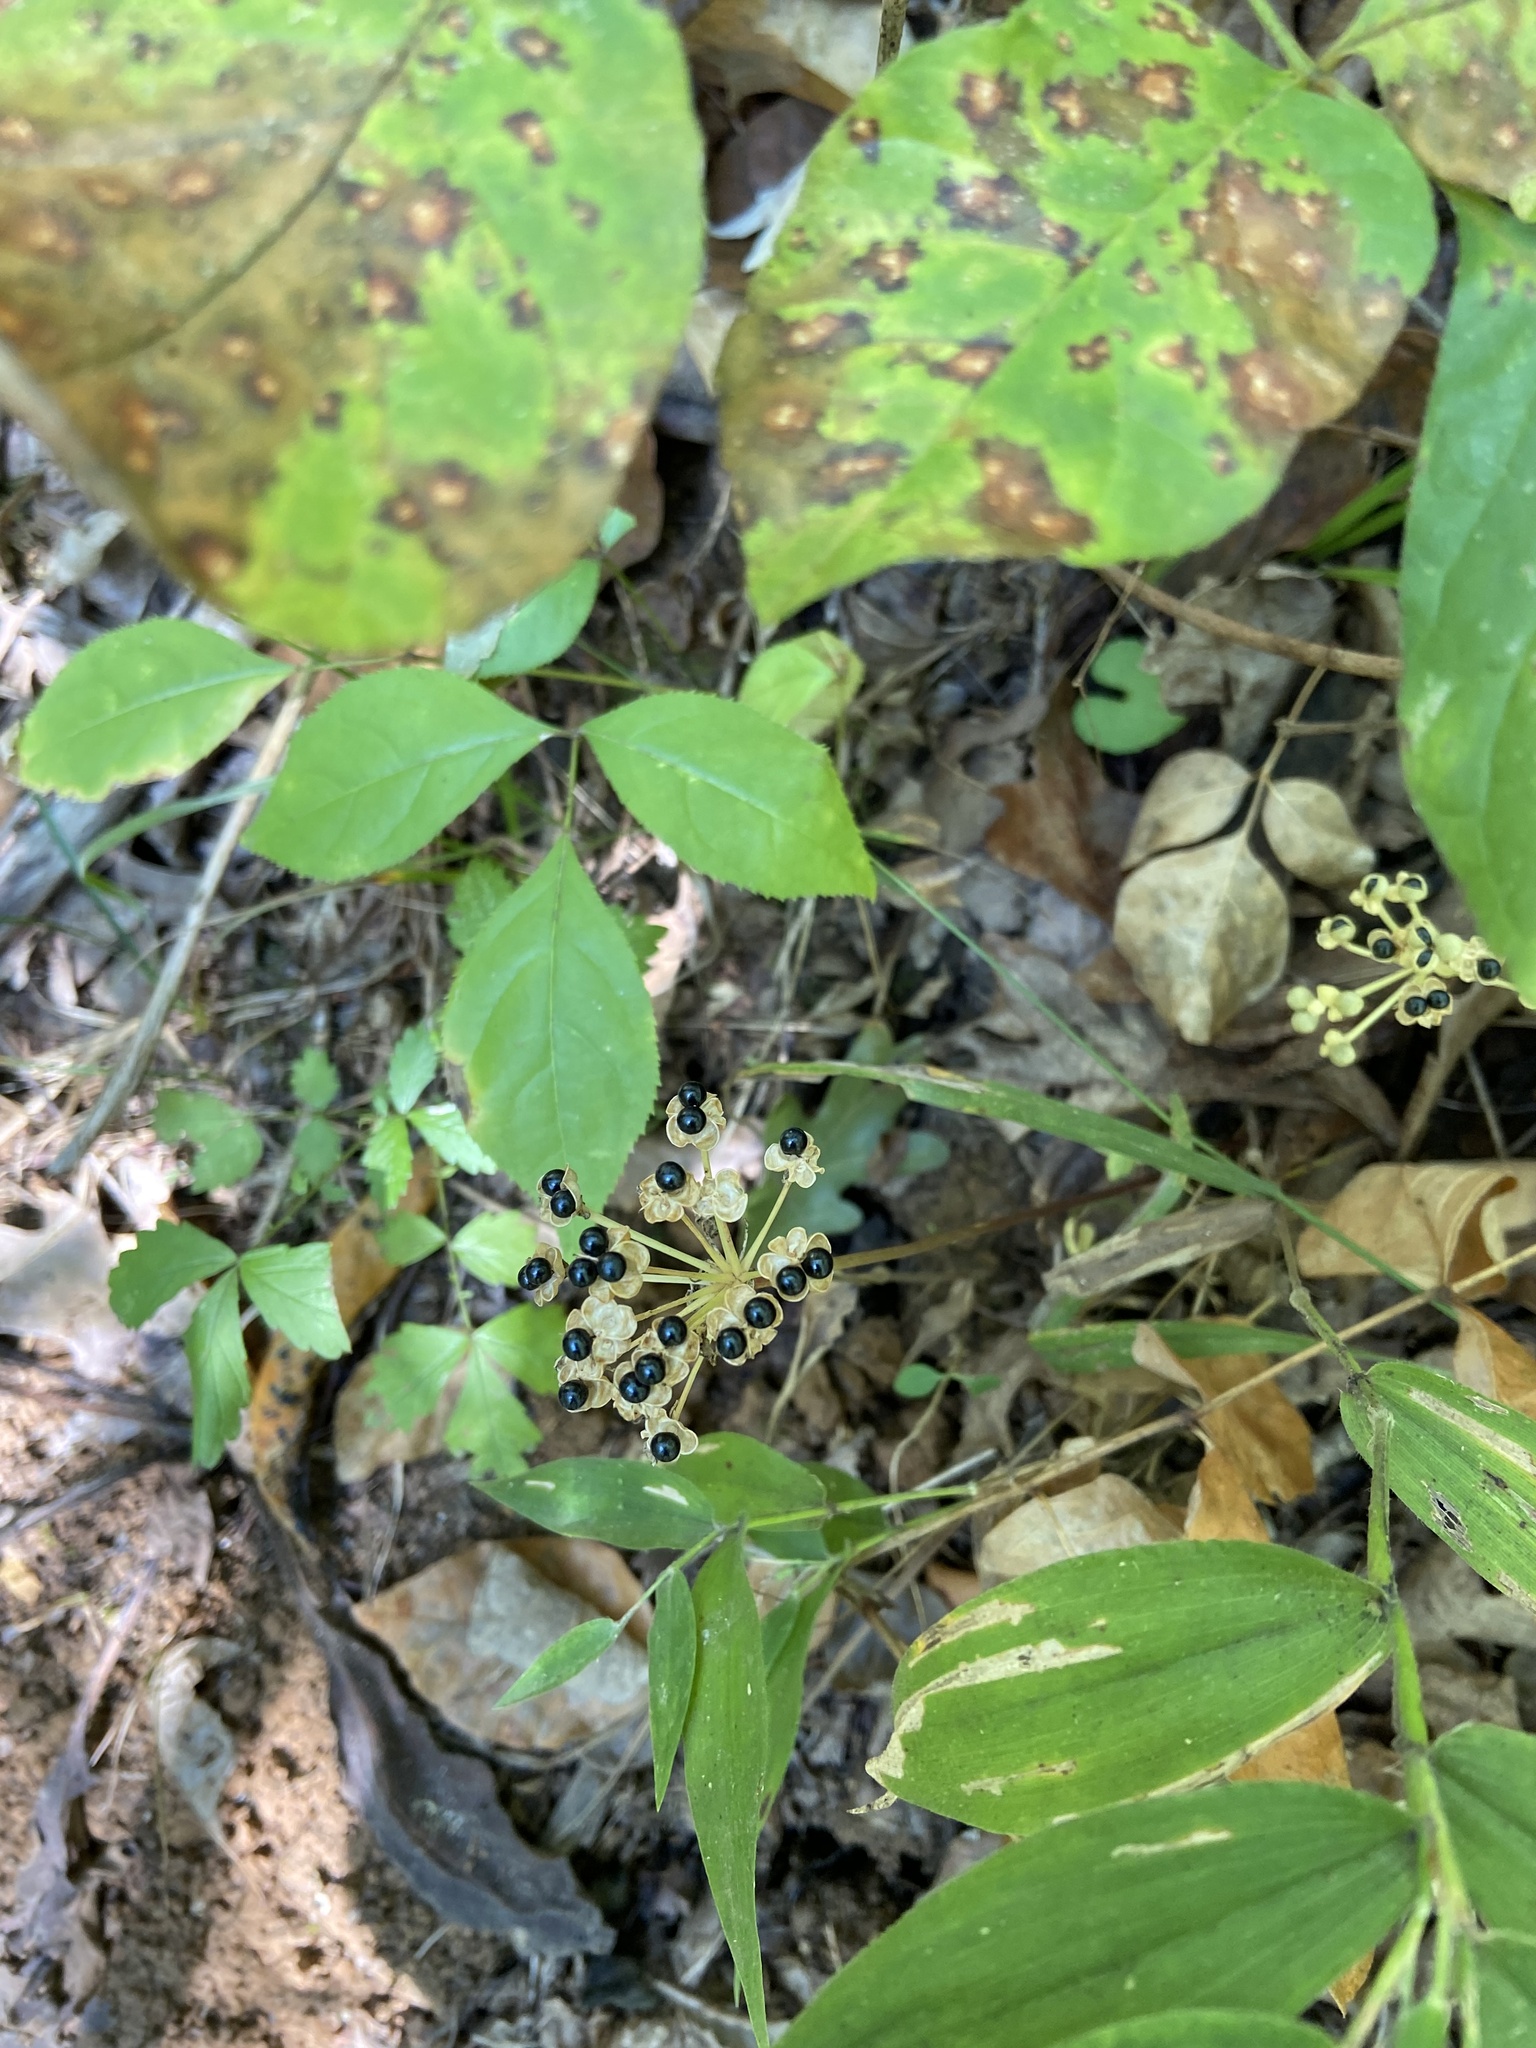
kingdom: Plantae
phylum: Tracheophyta
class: Liliopsida
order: Asparagales
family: Amaryllidaceae
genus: Allium
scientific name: Allium tricoccum
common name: Ramp
